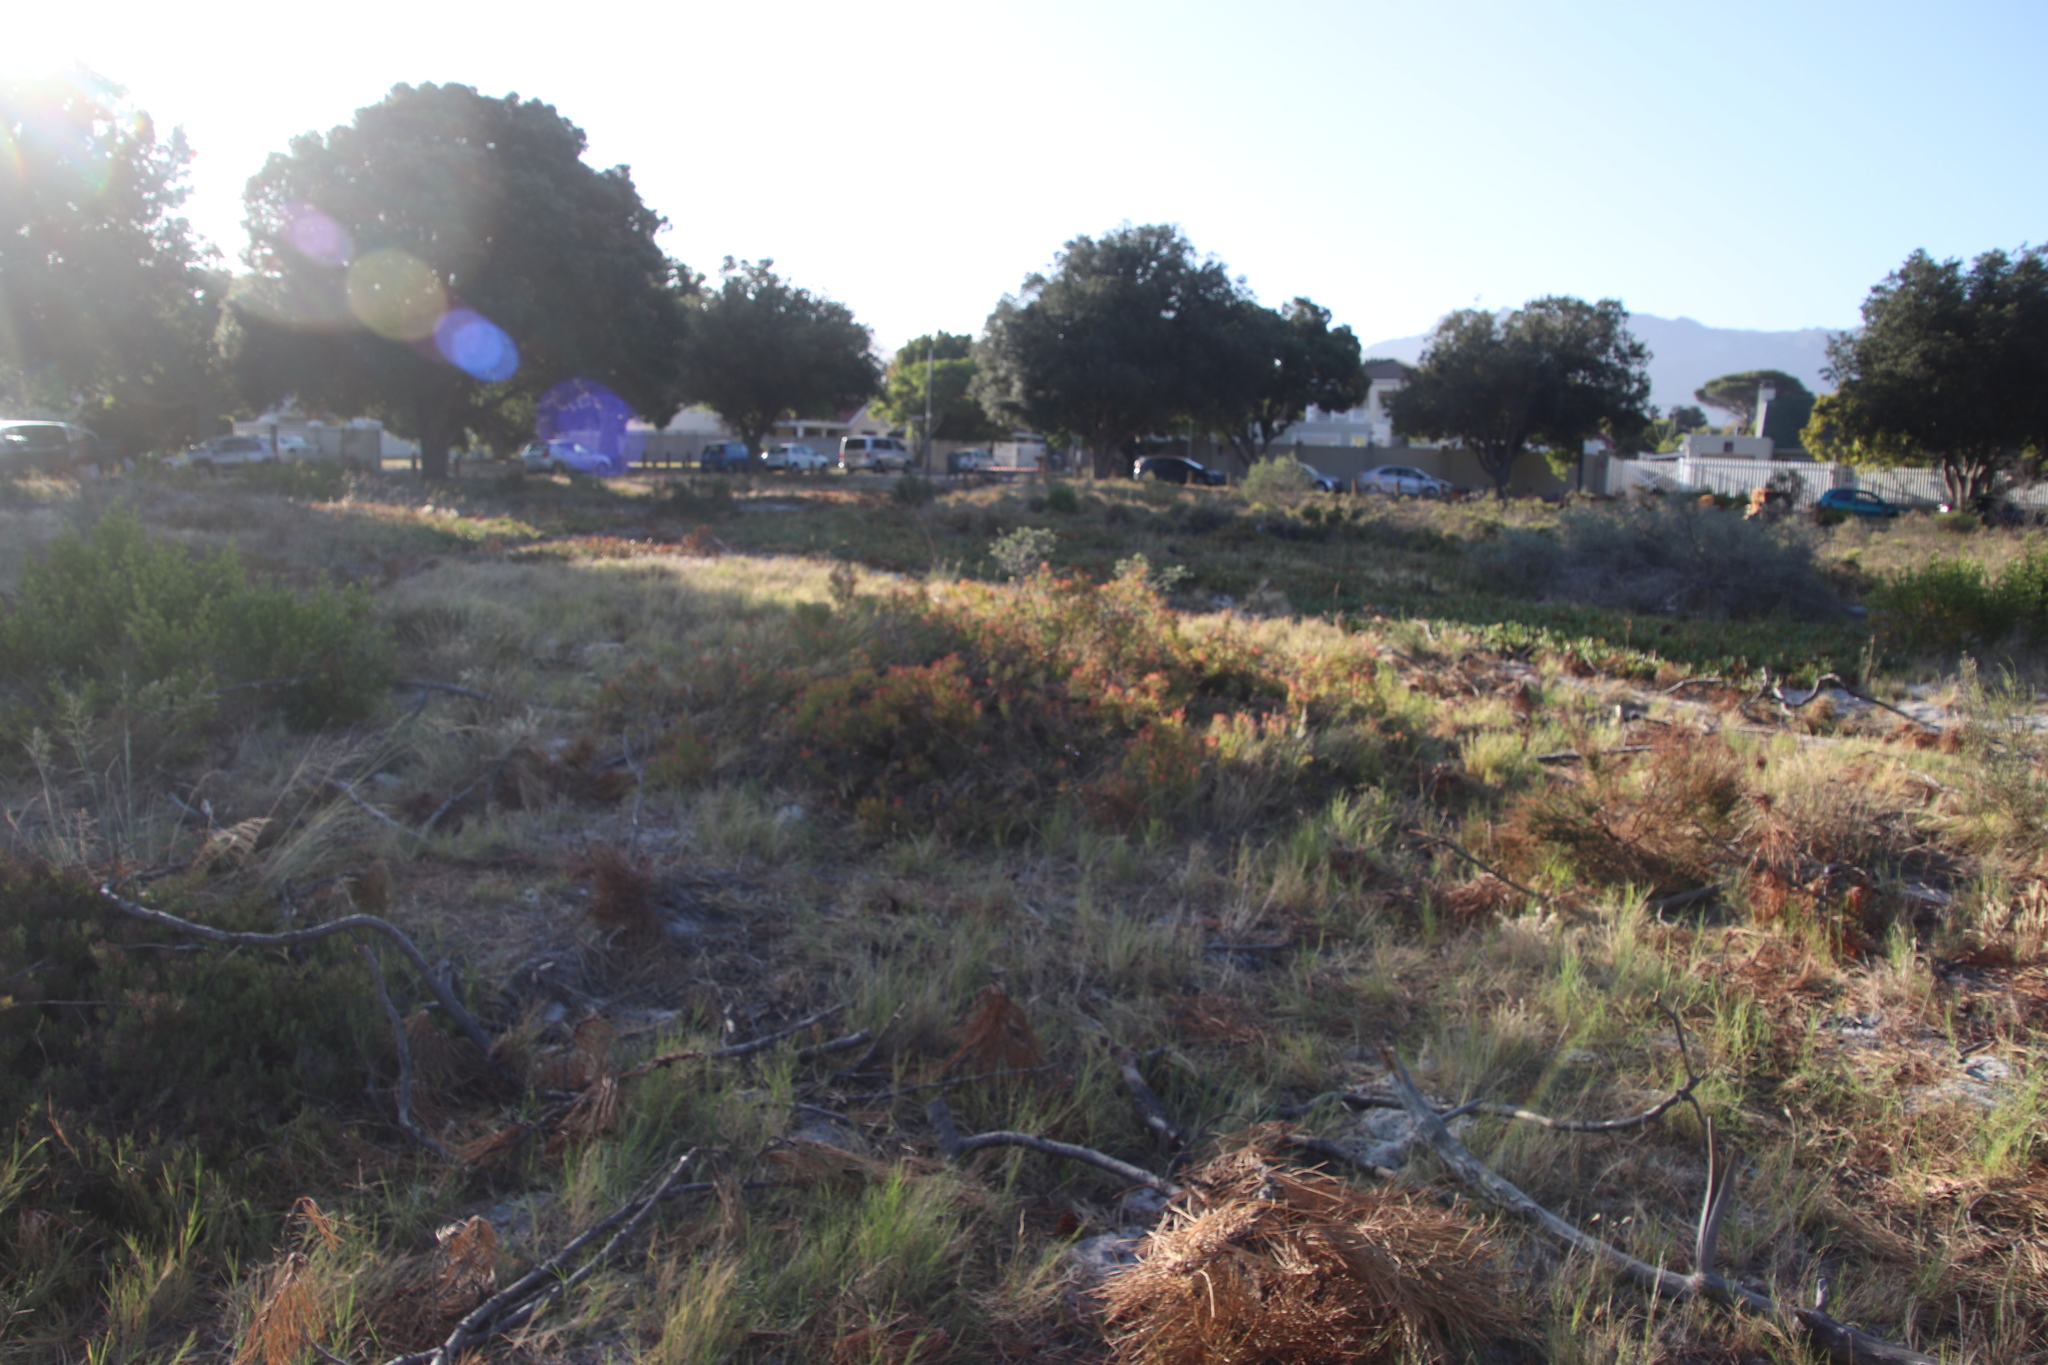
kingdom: Plantae
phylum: Tracheophyta
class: Magnoliopsida
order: Proteales
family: Proteaceae
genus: Leucadendron
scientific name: Leucadendron salignum
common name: Common sunshine conebush
